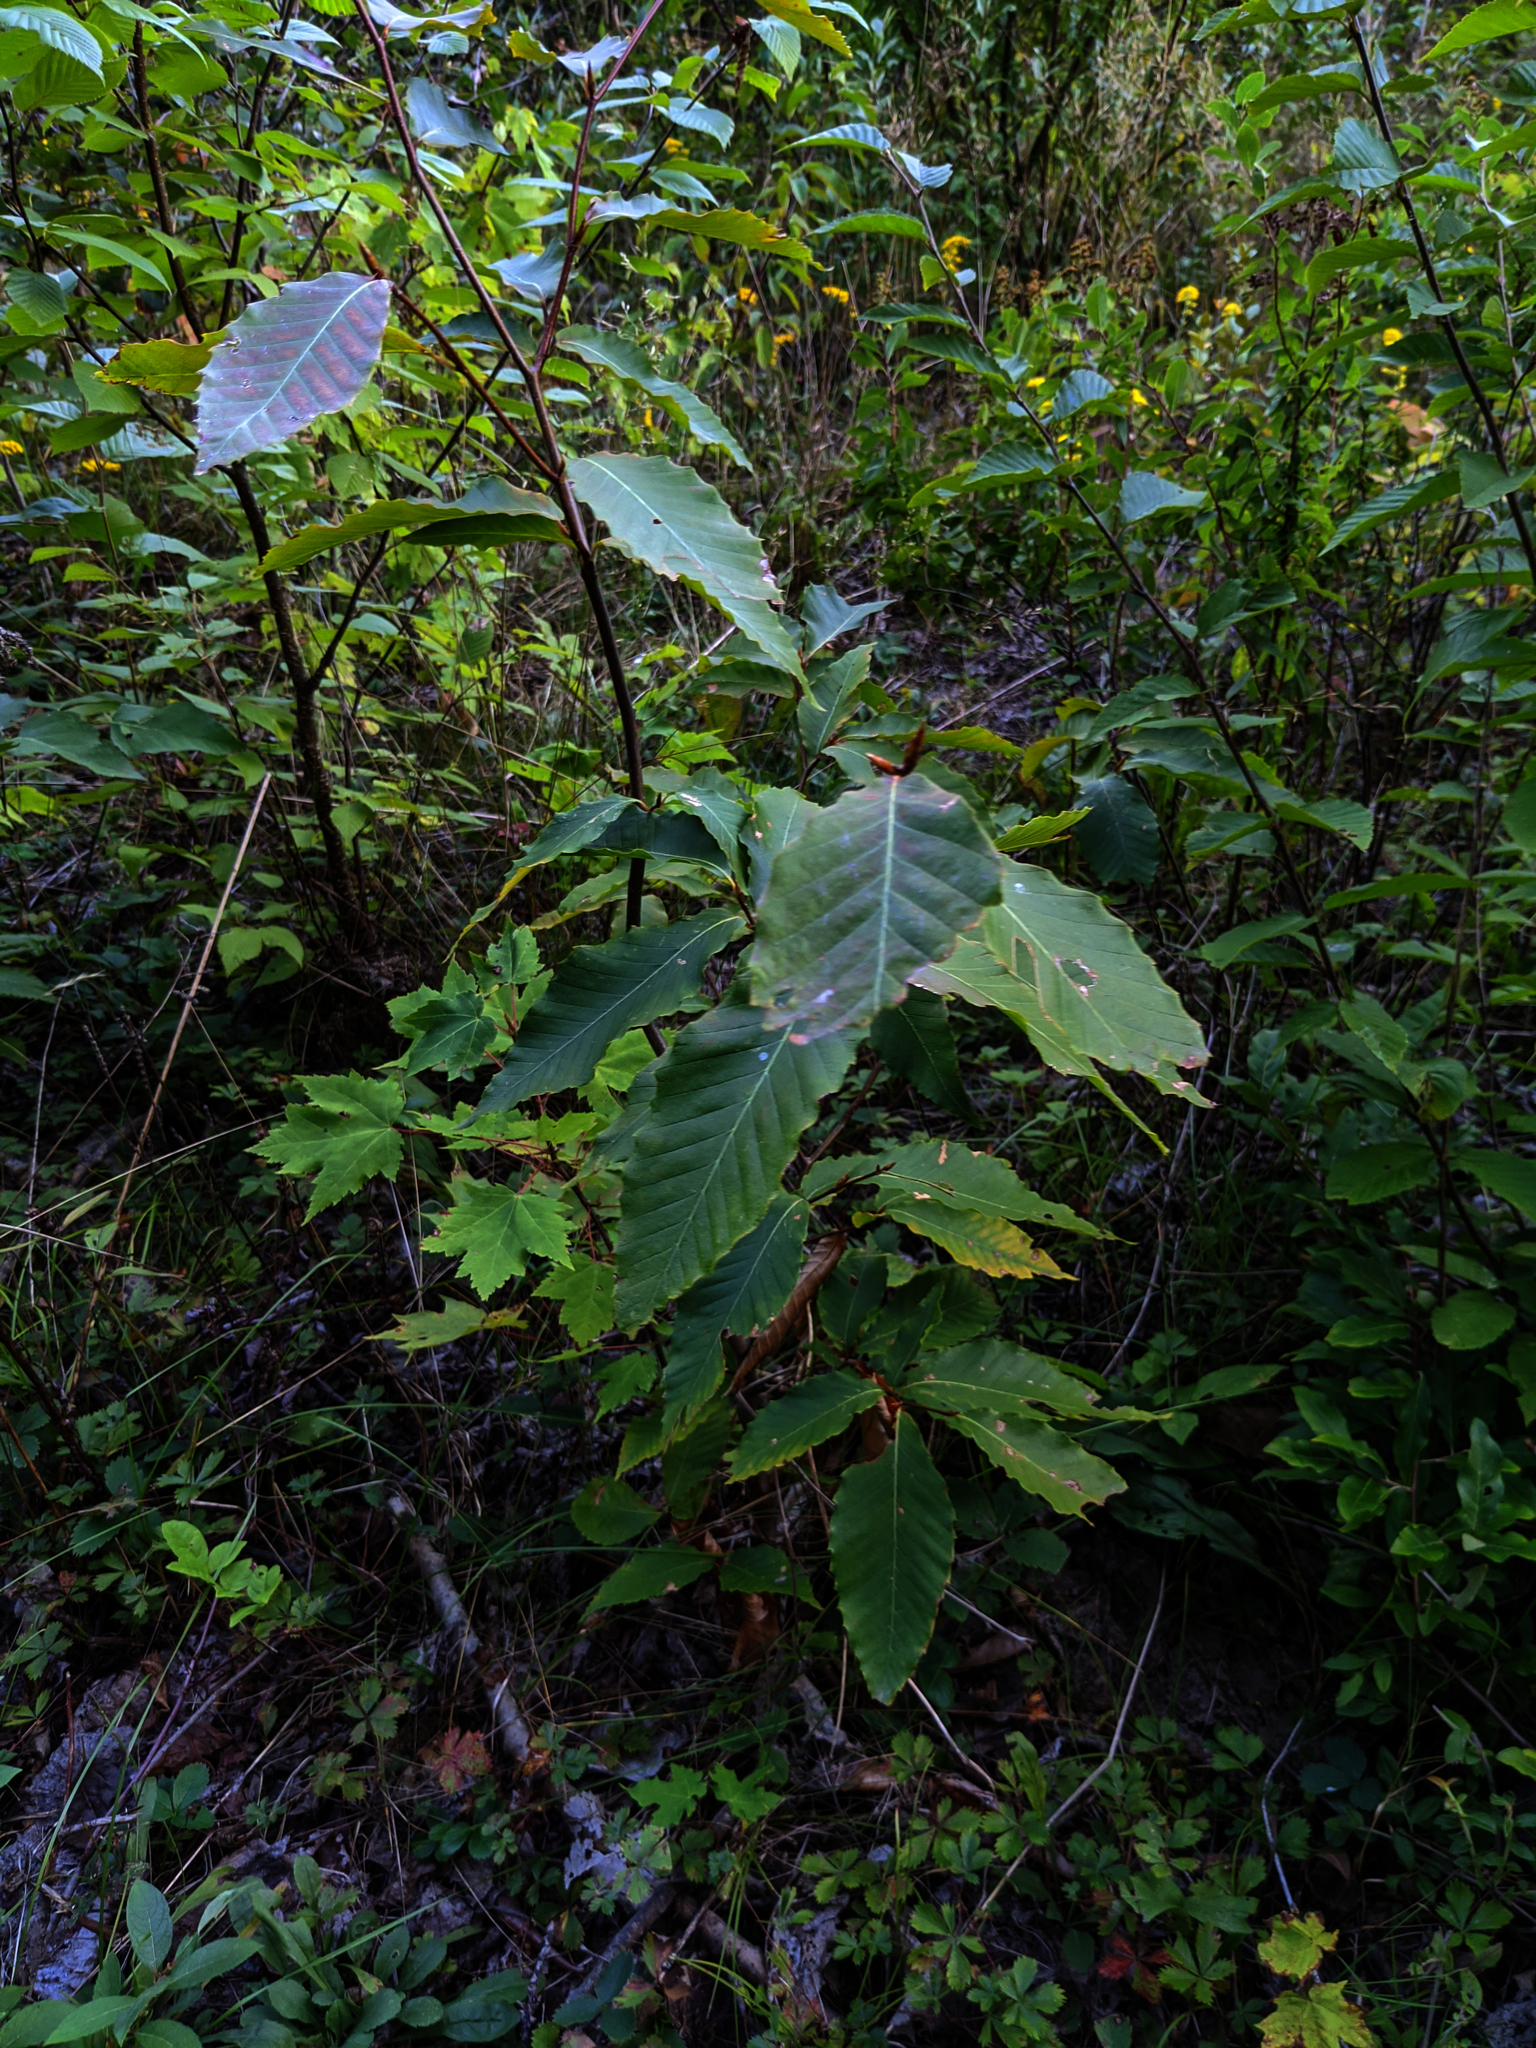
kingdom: Plantae
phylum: Tracheophyta
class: Magnoliopsida
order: Fagales
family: Fagaceae
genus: Fagus
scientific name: Fagus grandifolia
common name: American beech
